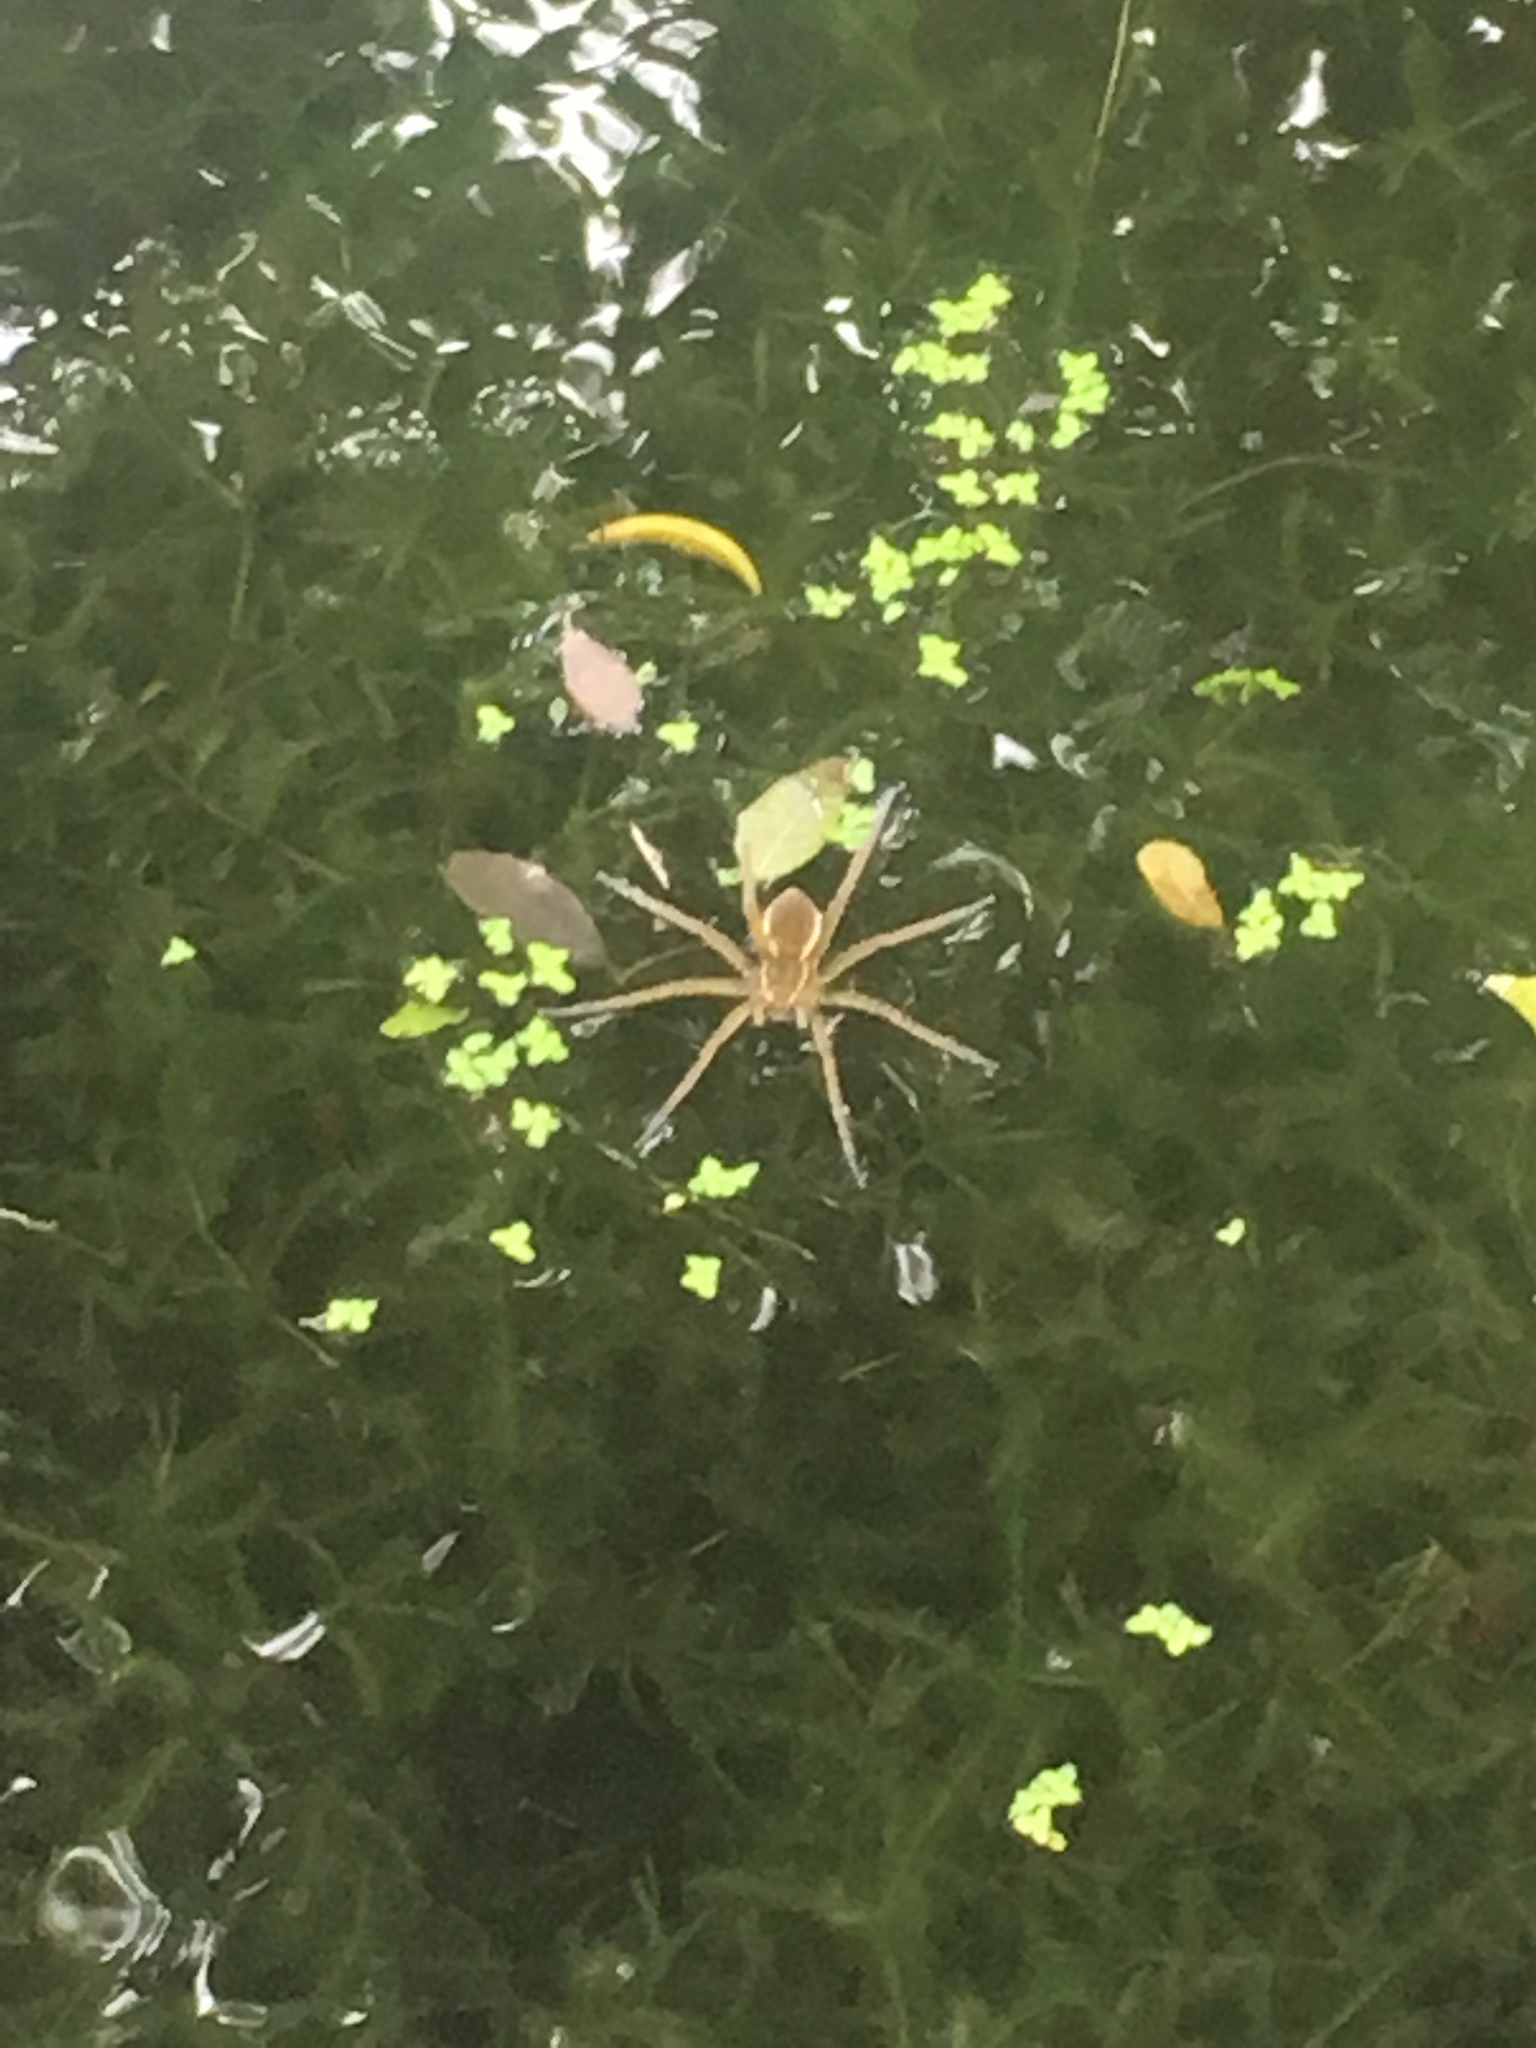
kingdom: Animalia
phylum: Arthropoda
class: Arachnida
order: Araneae
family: Pisauridae
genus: Dolomedes
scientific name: Dolomedes triton
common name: Six-spotted fishing spider
